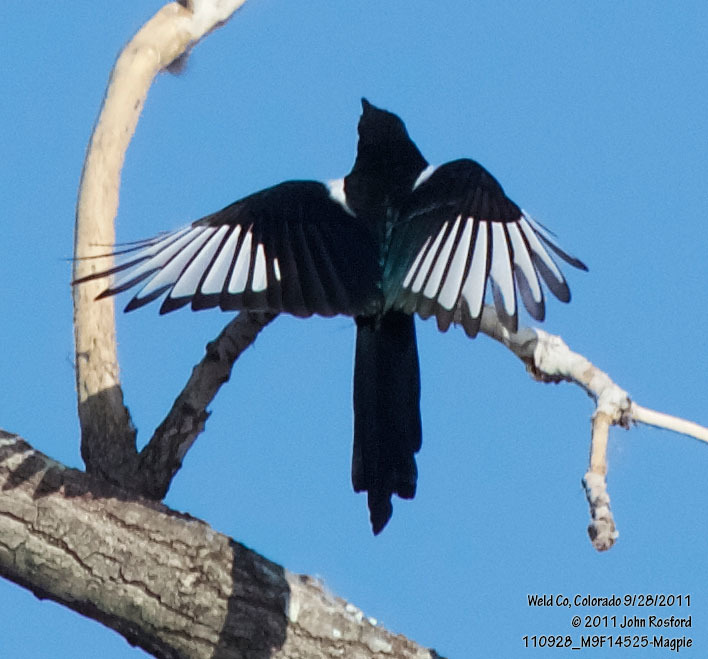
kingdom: Animalia
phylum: Chordata
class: Aves
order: Passeriformes
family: Corvidae
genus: Pica
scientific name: Pica hudsonia
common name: Black-billed magpie
